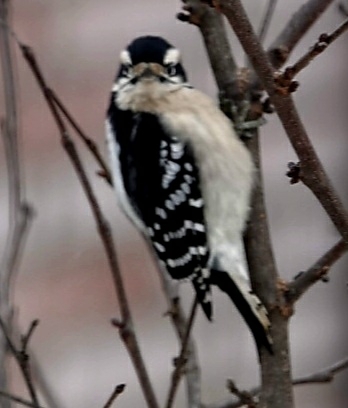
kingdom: Animalia
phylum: Chordata
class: Aves
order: Piciformes
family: Picidae
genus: Dryobates
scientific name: Dryobates pubescens
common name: Downy woodpecker
